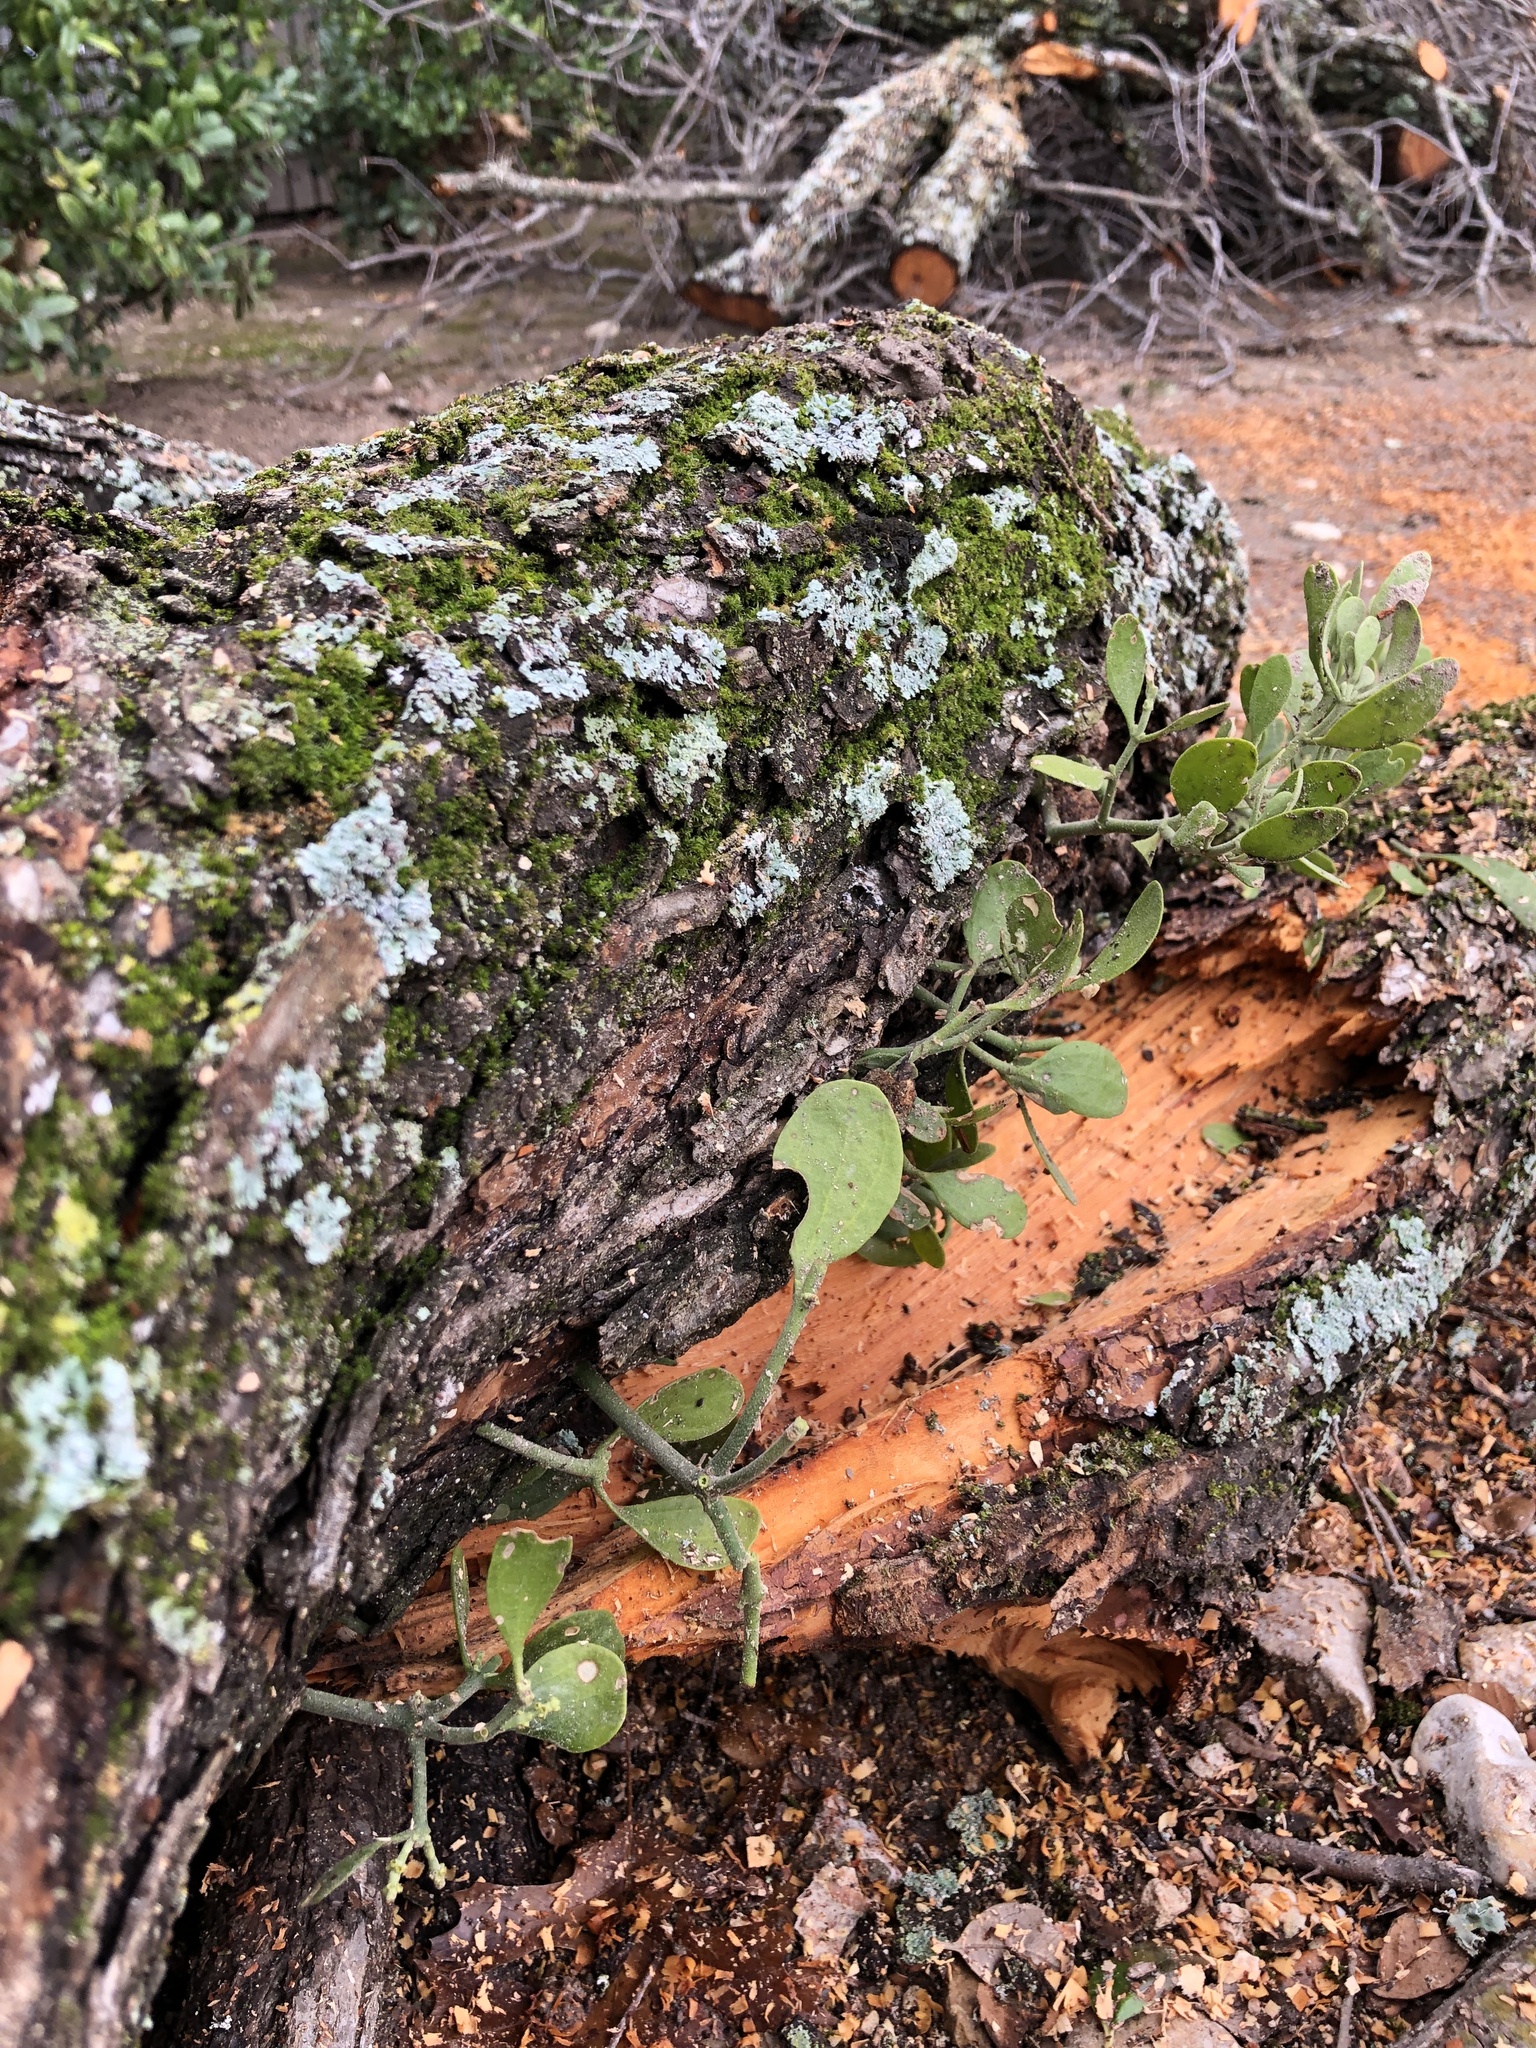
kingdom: Plantae
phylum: Tracheophyta
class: Magnoliopsida
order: Santalales
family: Viscaceae
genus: Phoradendron
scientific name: Phoradendron leucarpum
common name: Pacific mistletoe
